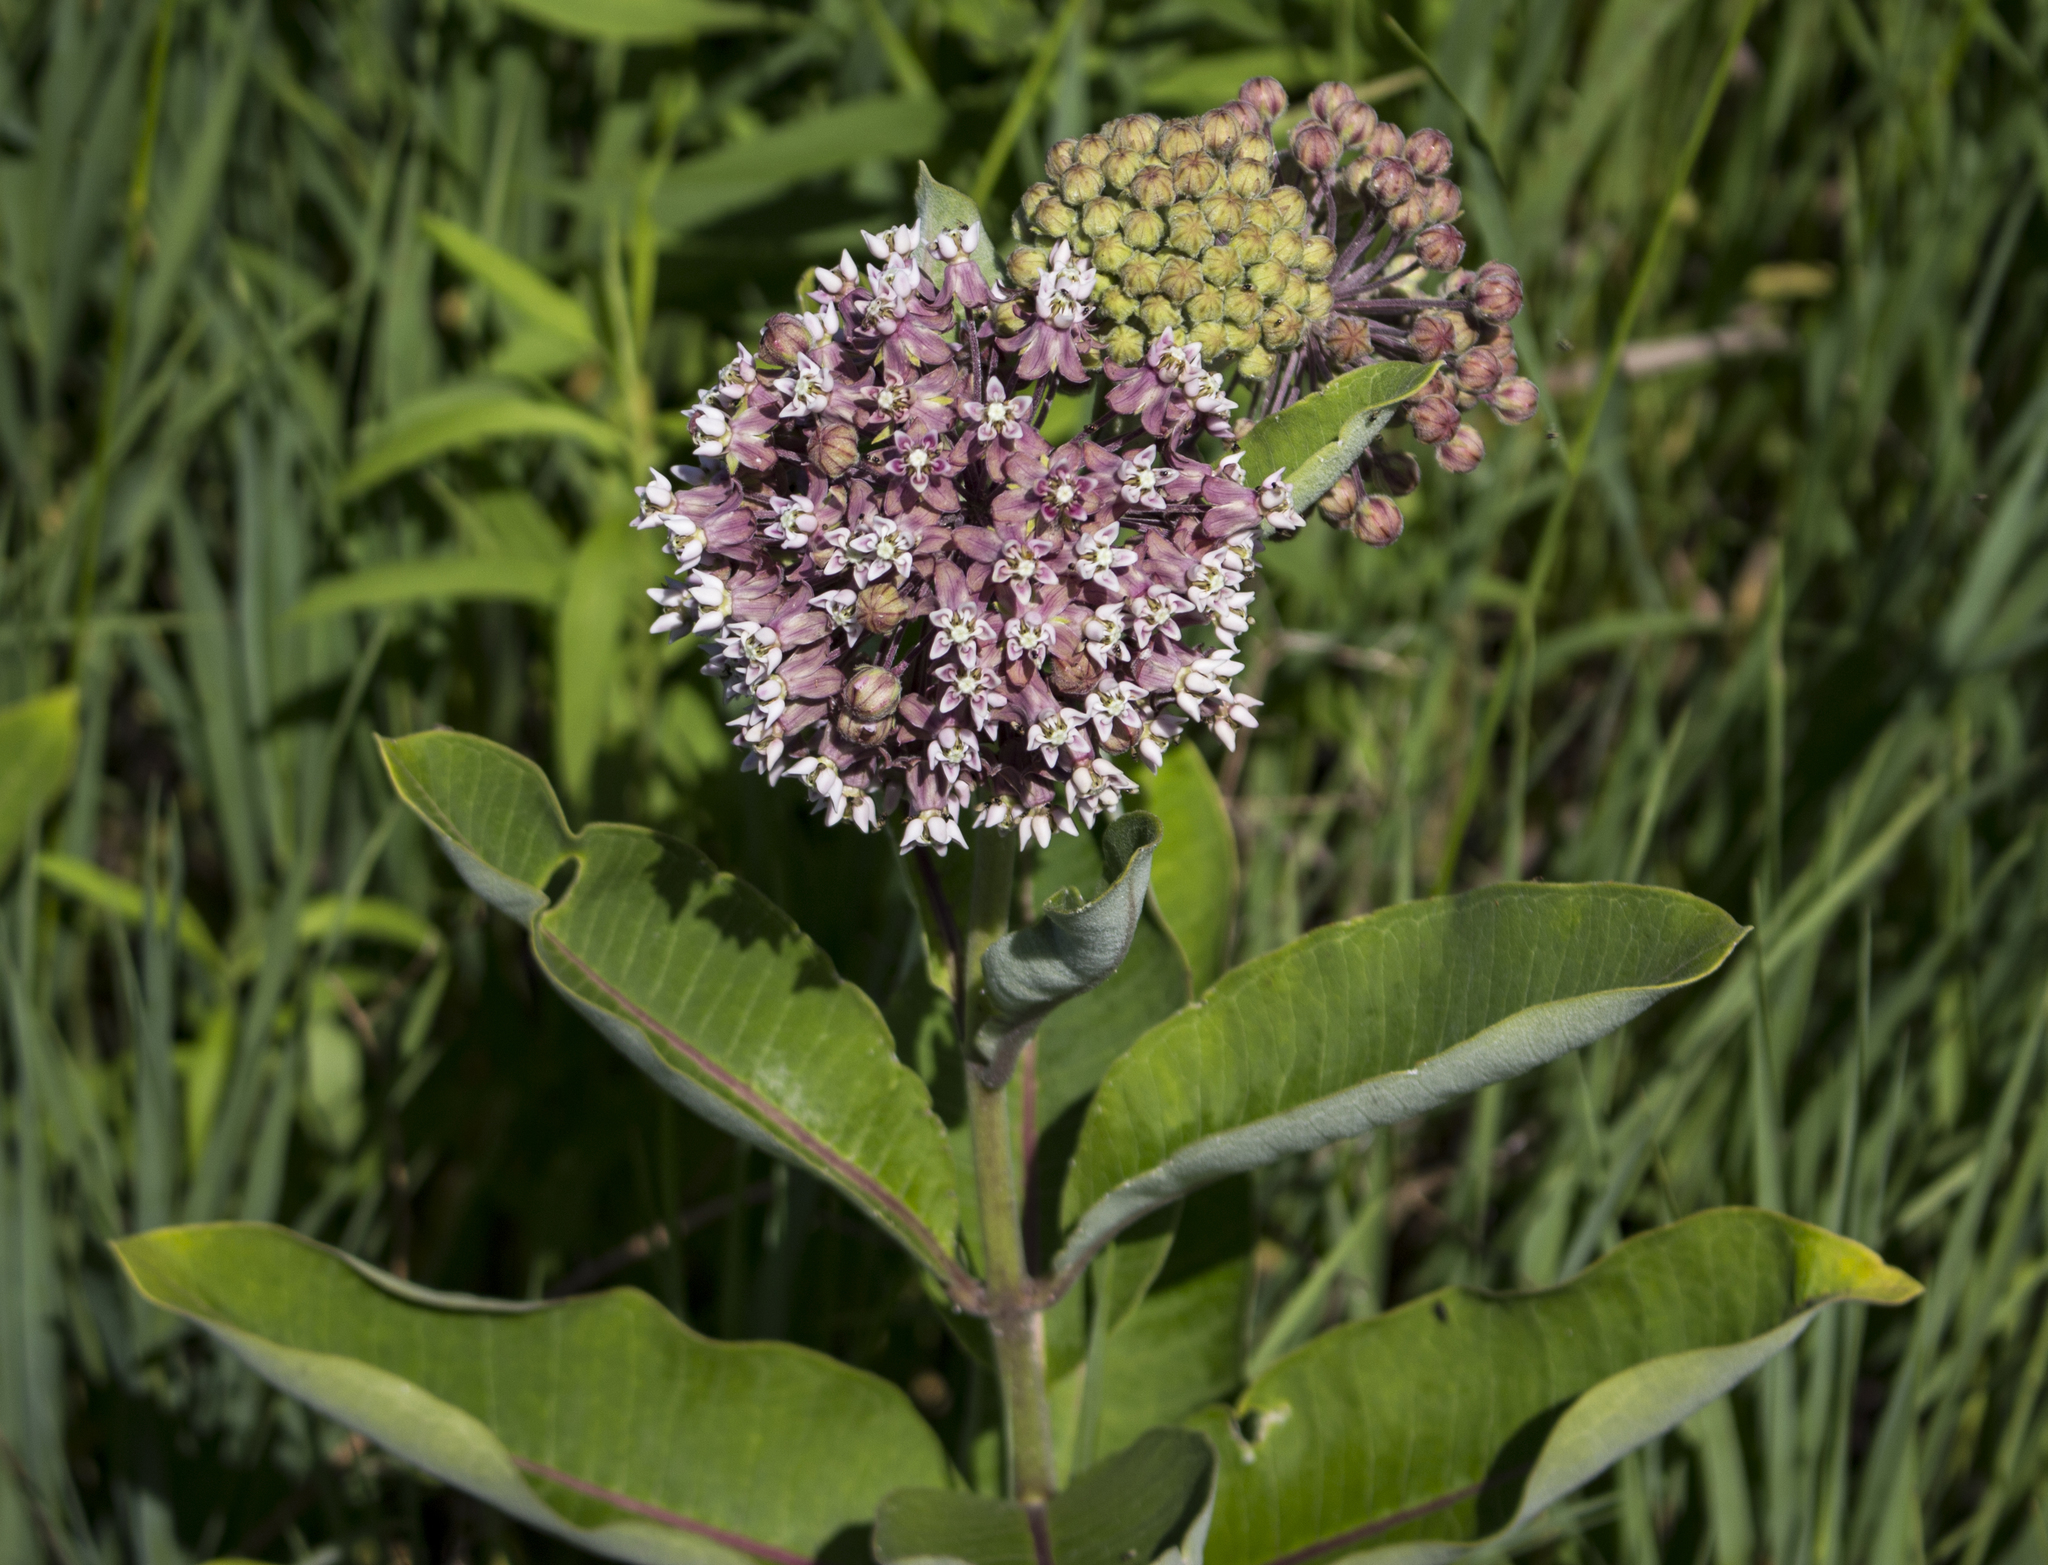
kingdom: Plantae
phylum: Tracheophyta
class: Magnoliopsida
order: Gentianales
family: Apocynaceae
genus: Asclepias
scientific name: Asclepias syriaca
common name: Common milkweed
